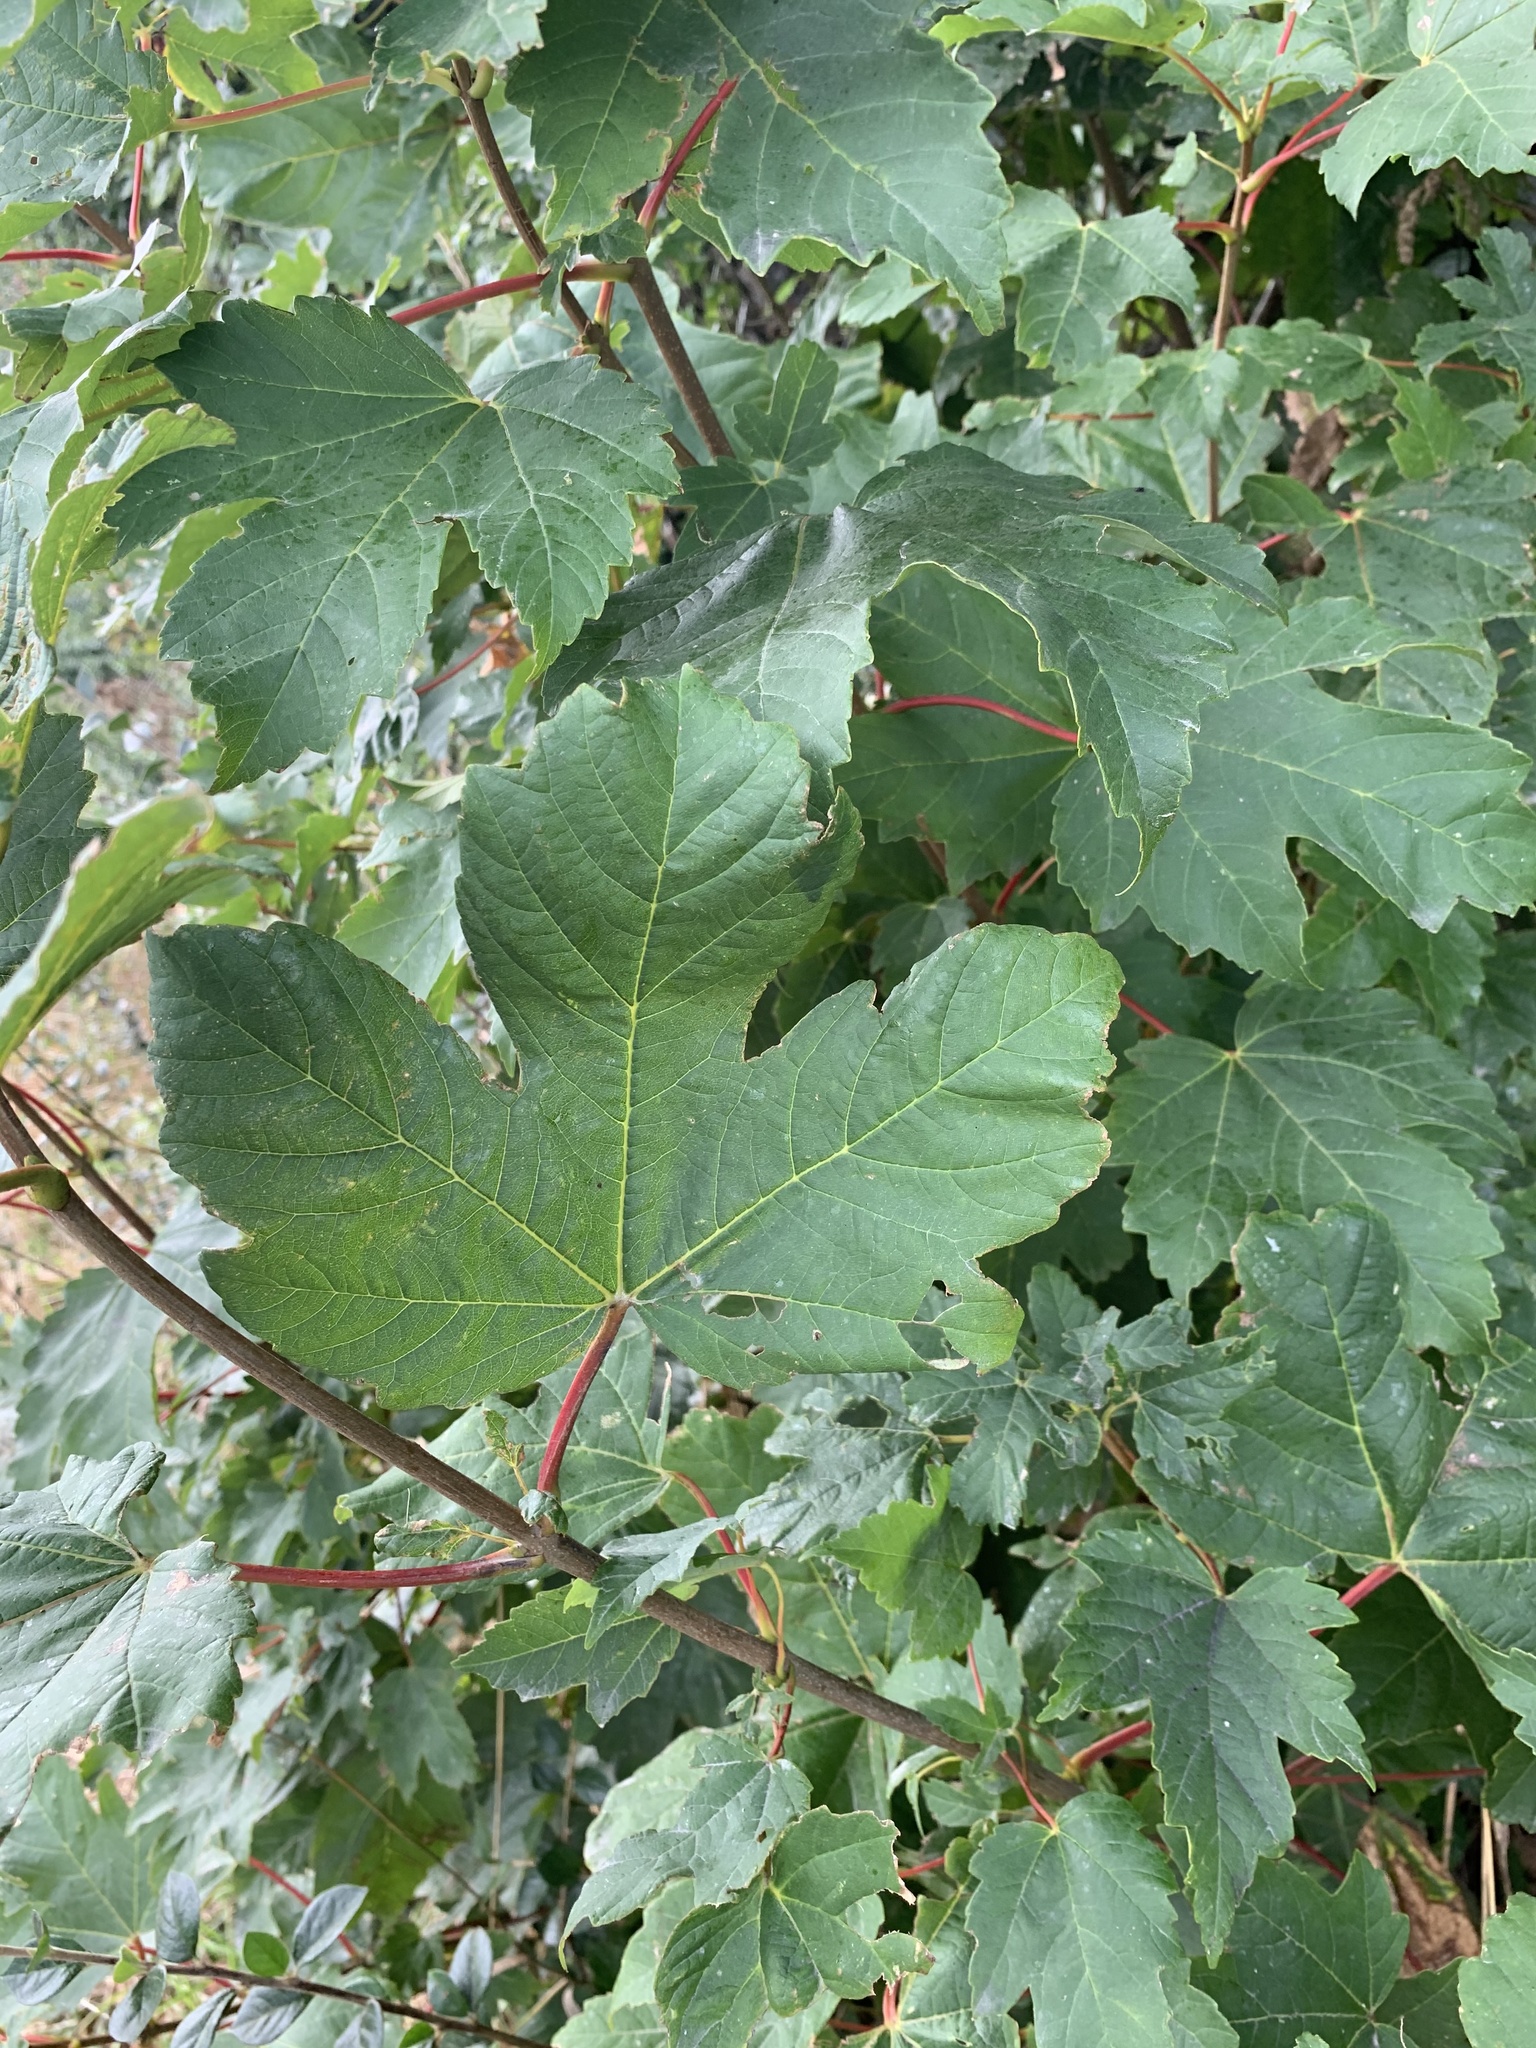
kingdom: Plantae
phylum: Tracheophyta
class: Magnoliopsida
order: Sapindales
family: Sapindaceae
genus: Acer
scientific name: Acer pseudoplatanus
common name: Sycamore
